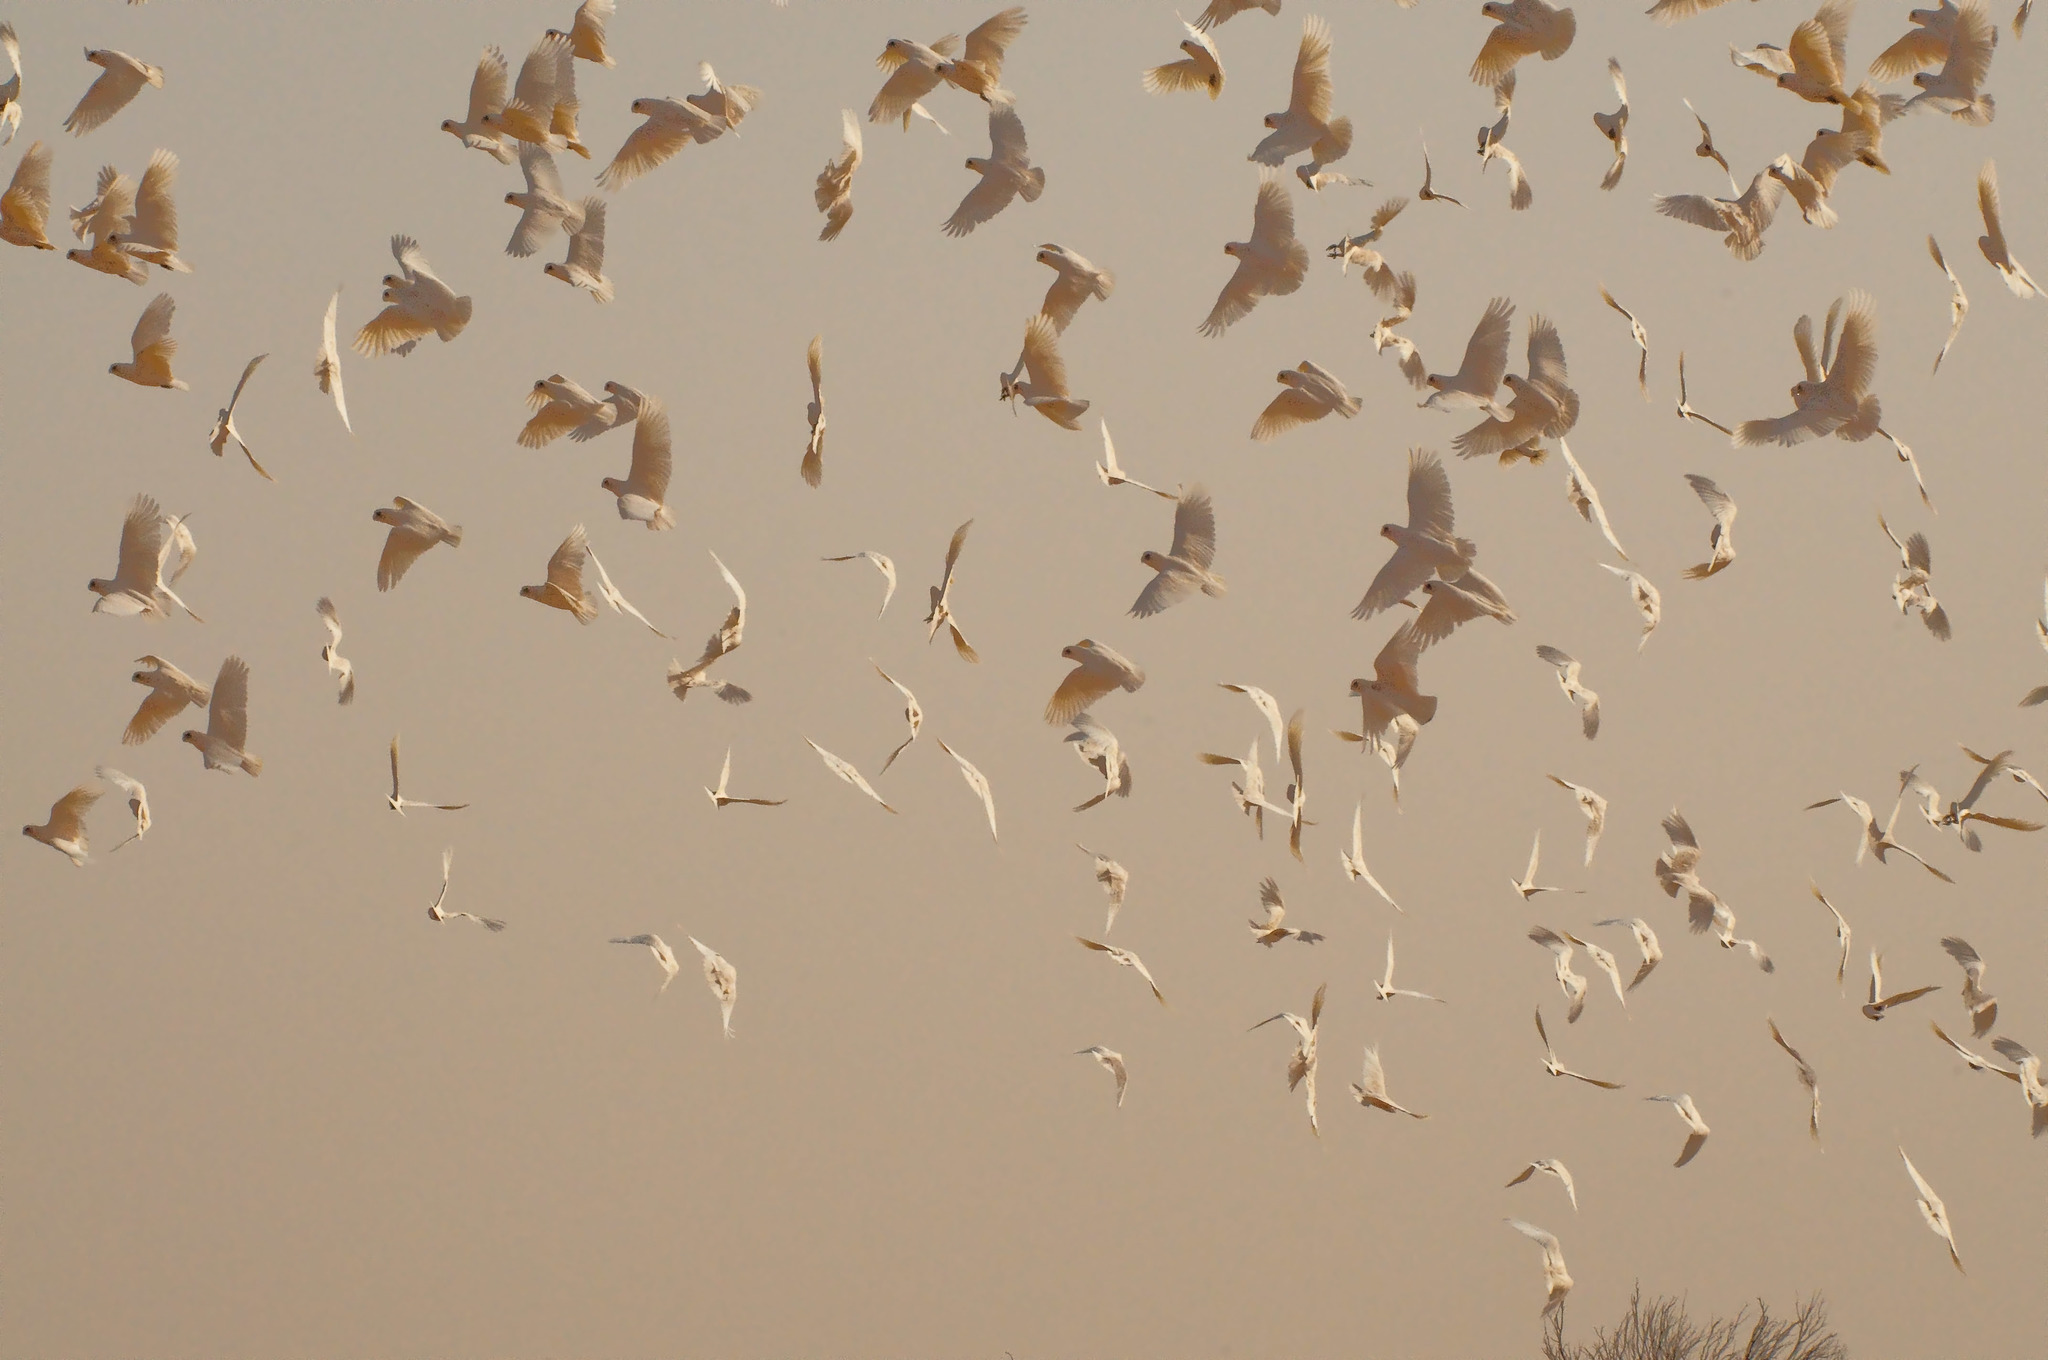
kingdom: Animalia
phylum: Chordata
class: Aves
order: Psittaciformes
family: Psittacidae
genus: Cacatua
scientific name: Cacatua sanguinea
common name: Little corella
